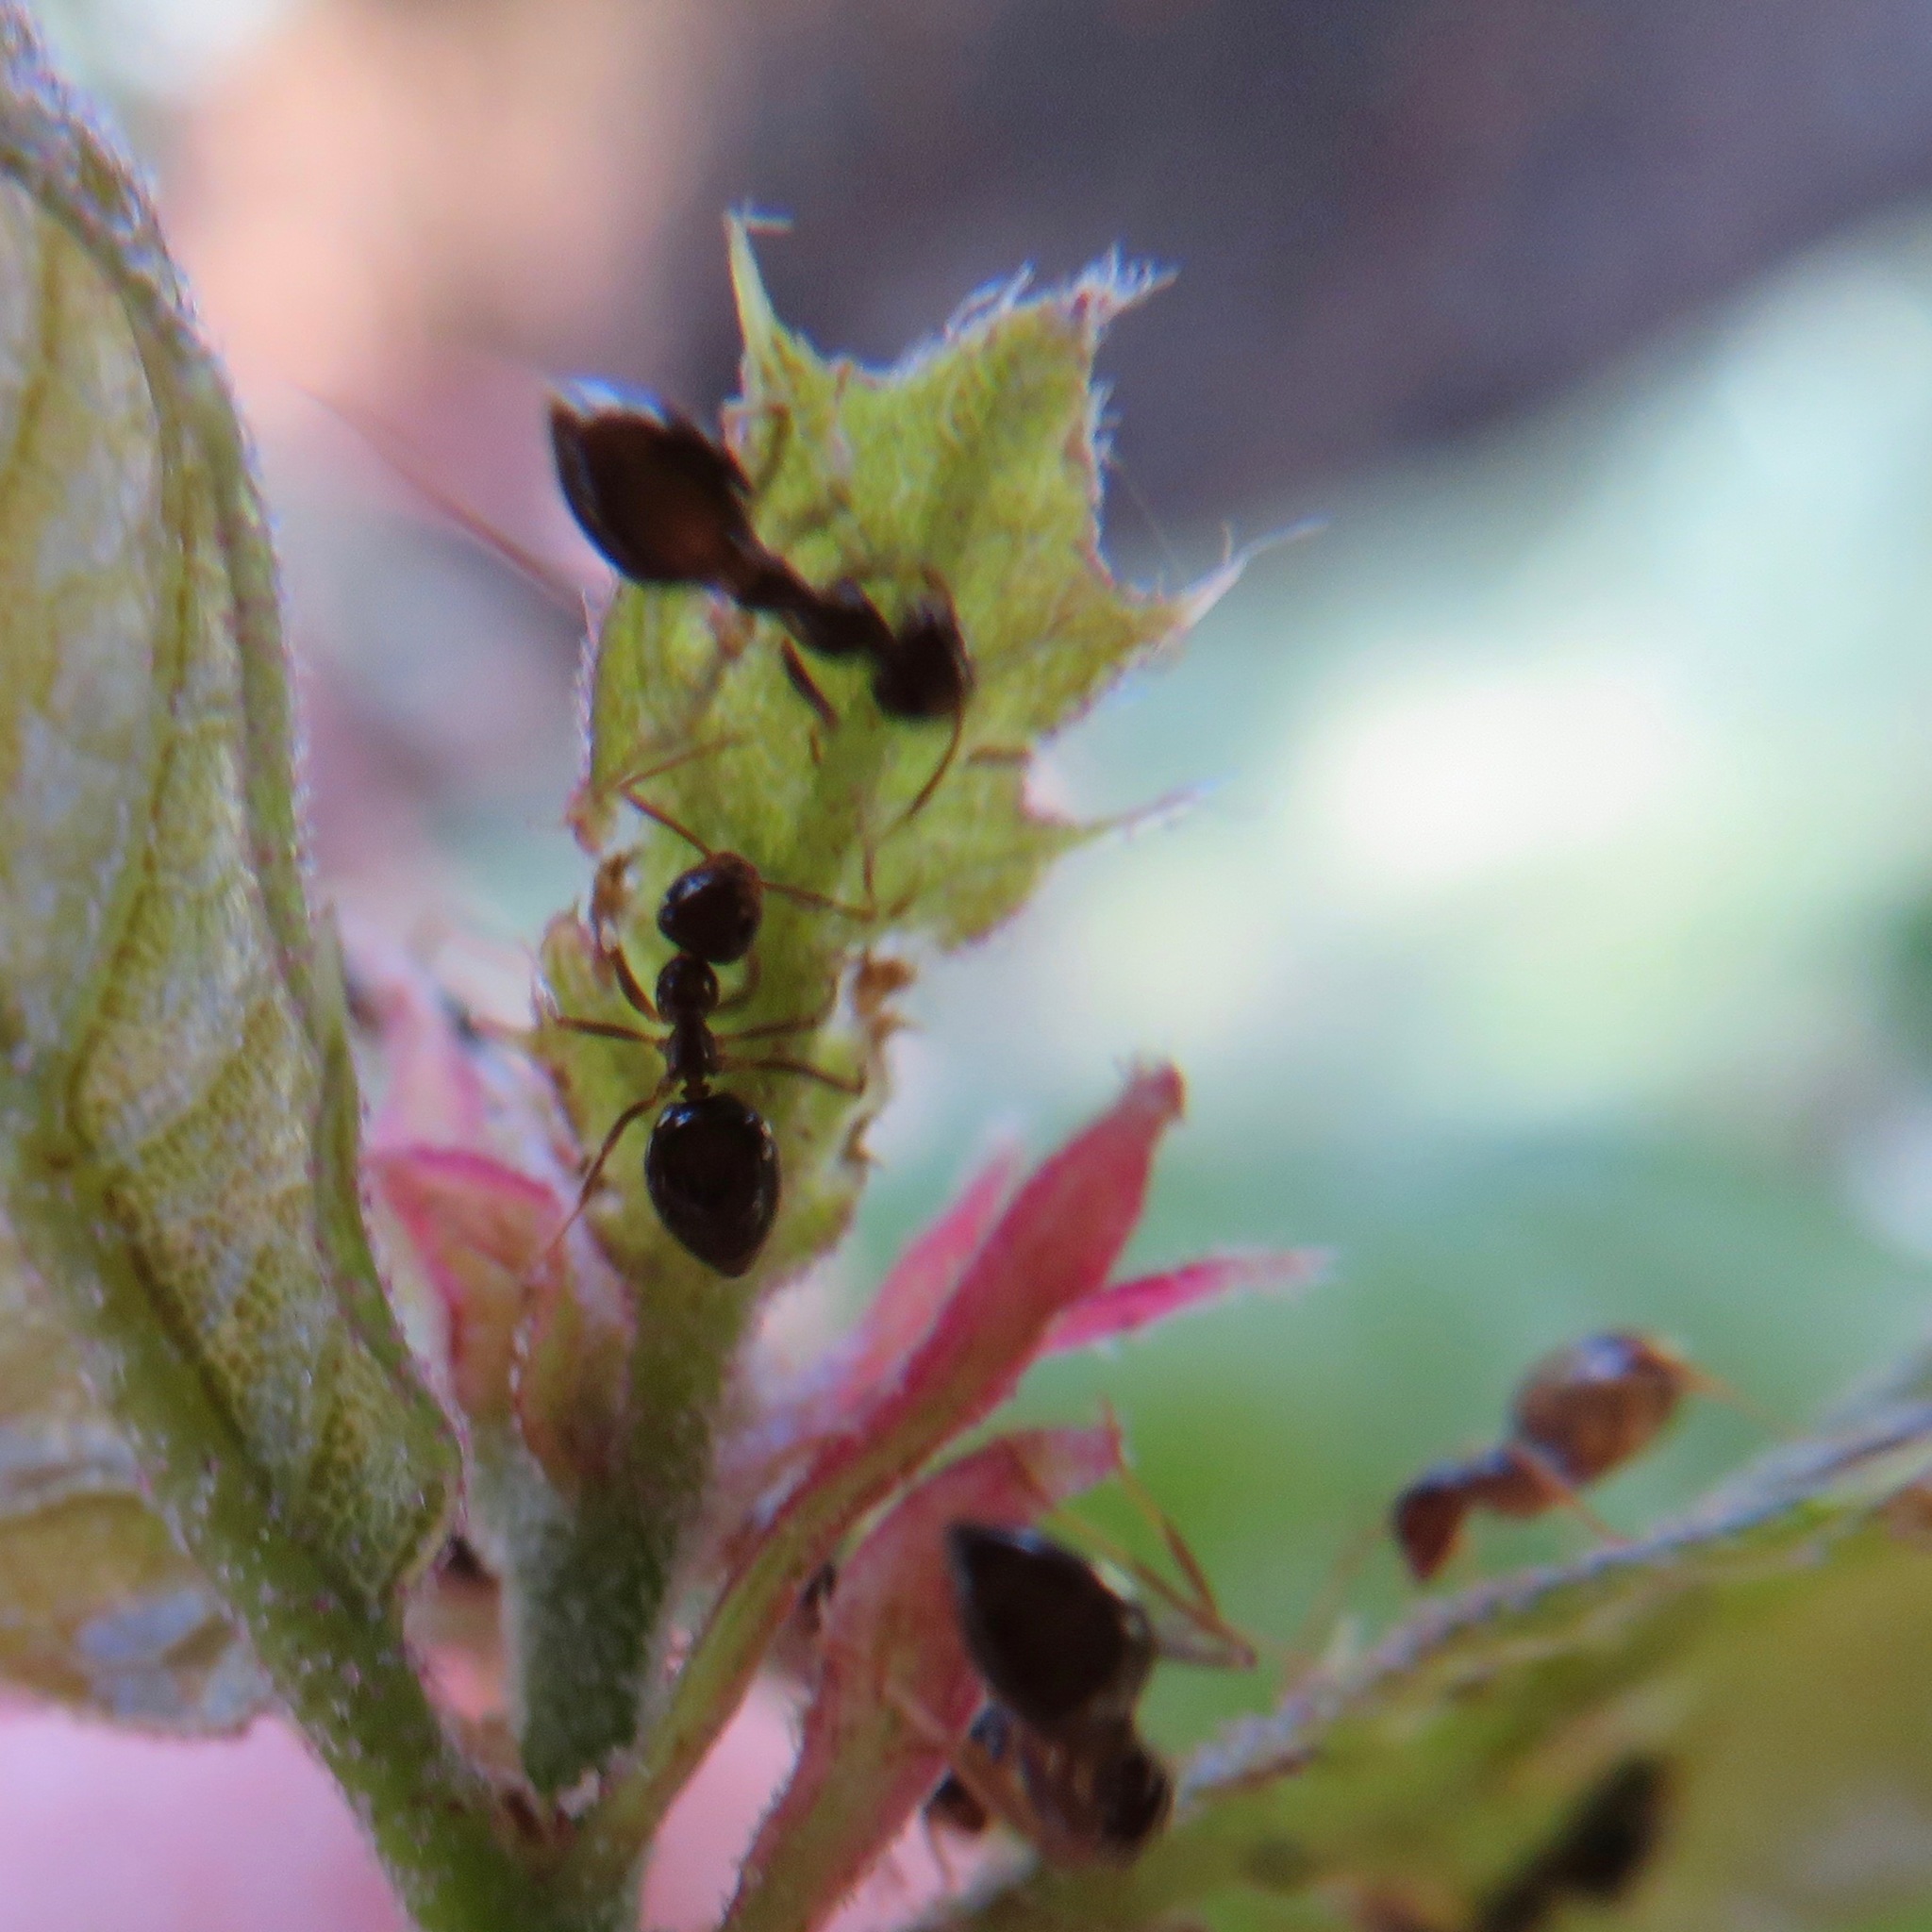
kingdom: Animalia
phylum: Arthropoda
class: Insecta
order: Hymenoptera
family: Formicidae
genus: Prenolepis
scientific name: Prenolepis imparis
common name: Small honey ant
